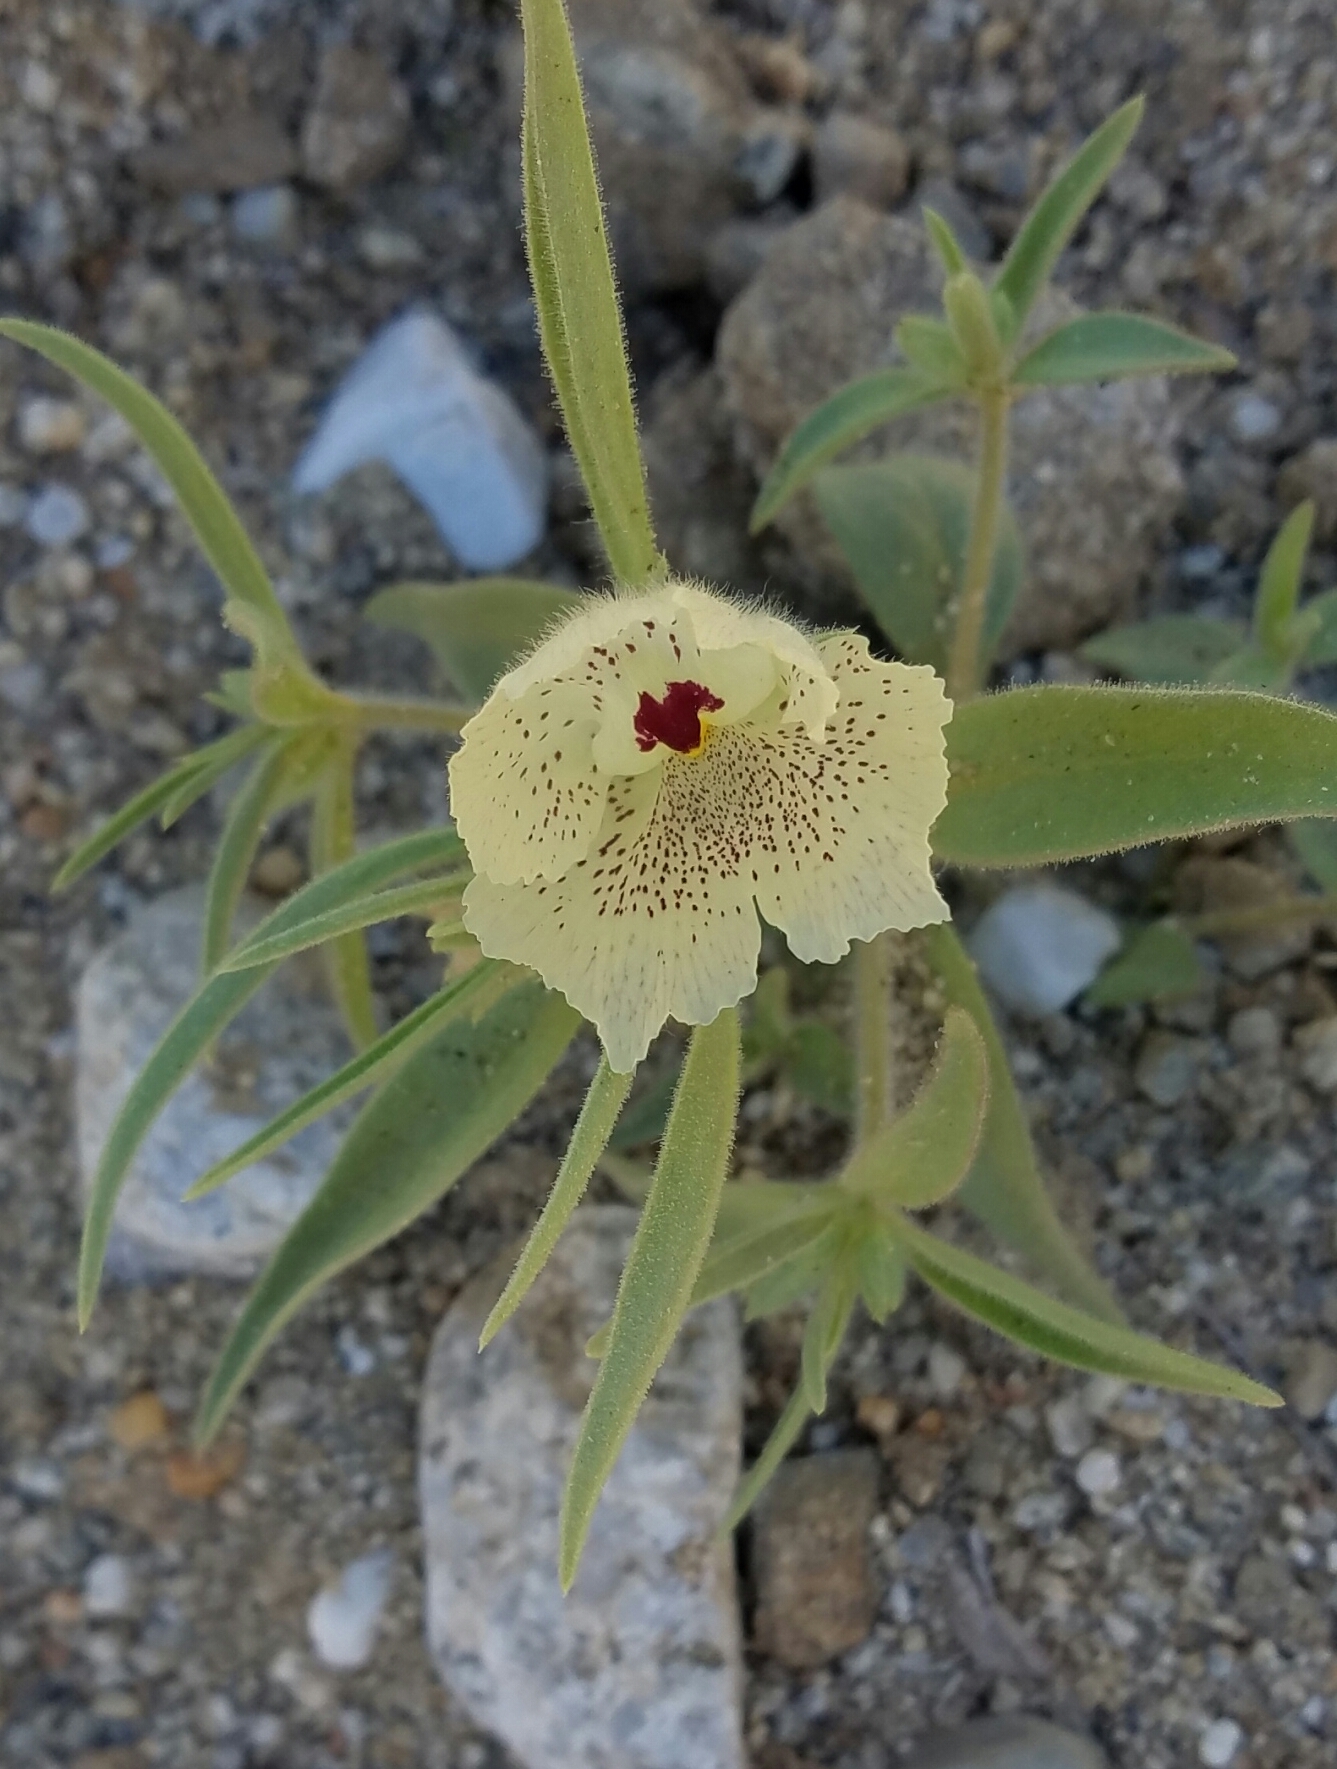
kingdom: Plantae
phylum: Tracheophyta
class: Magnoliopsida
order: Lamiales
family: Plantaginaceae
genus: Mohavea
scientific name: Mohavea confertiflora
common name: Ghost flower
